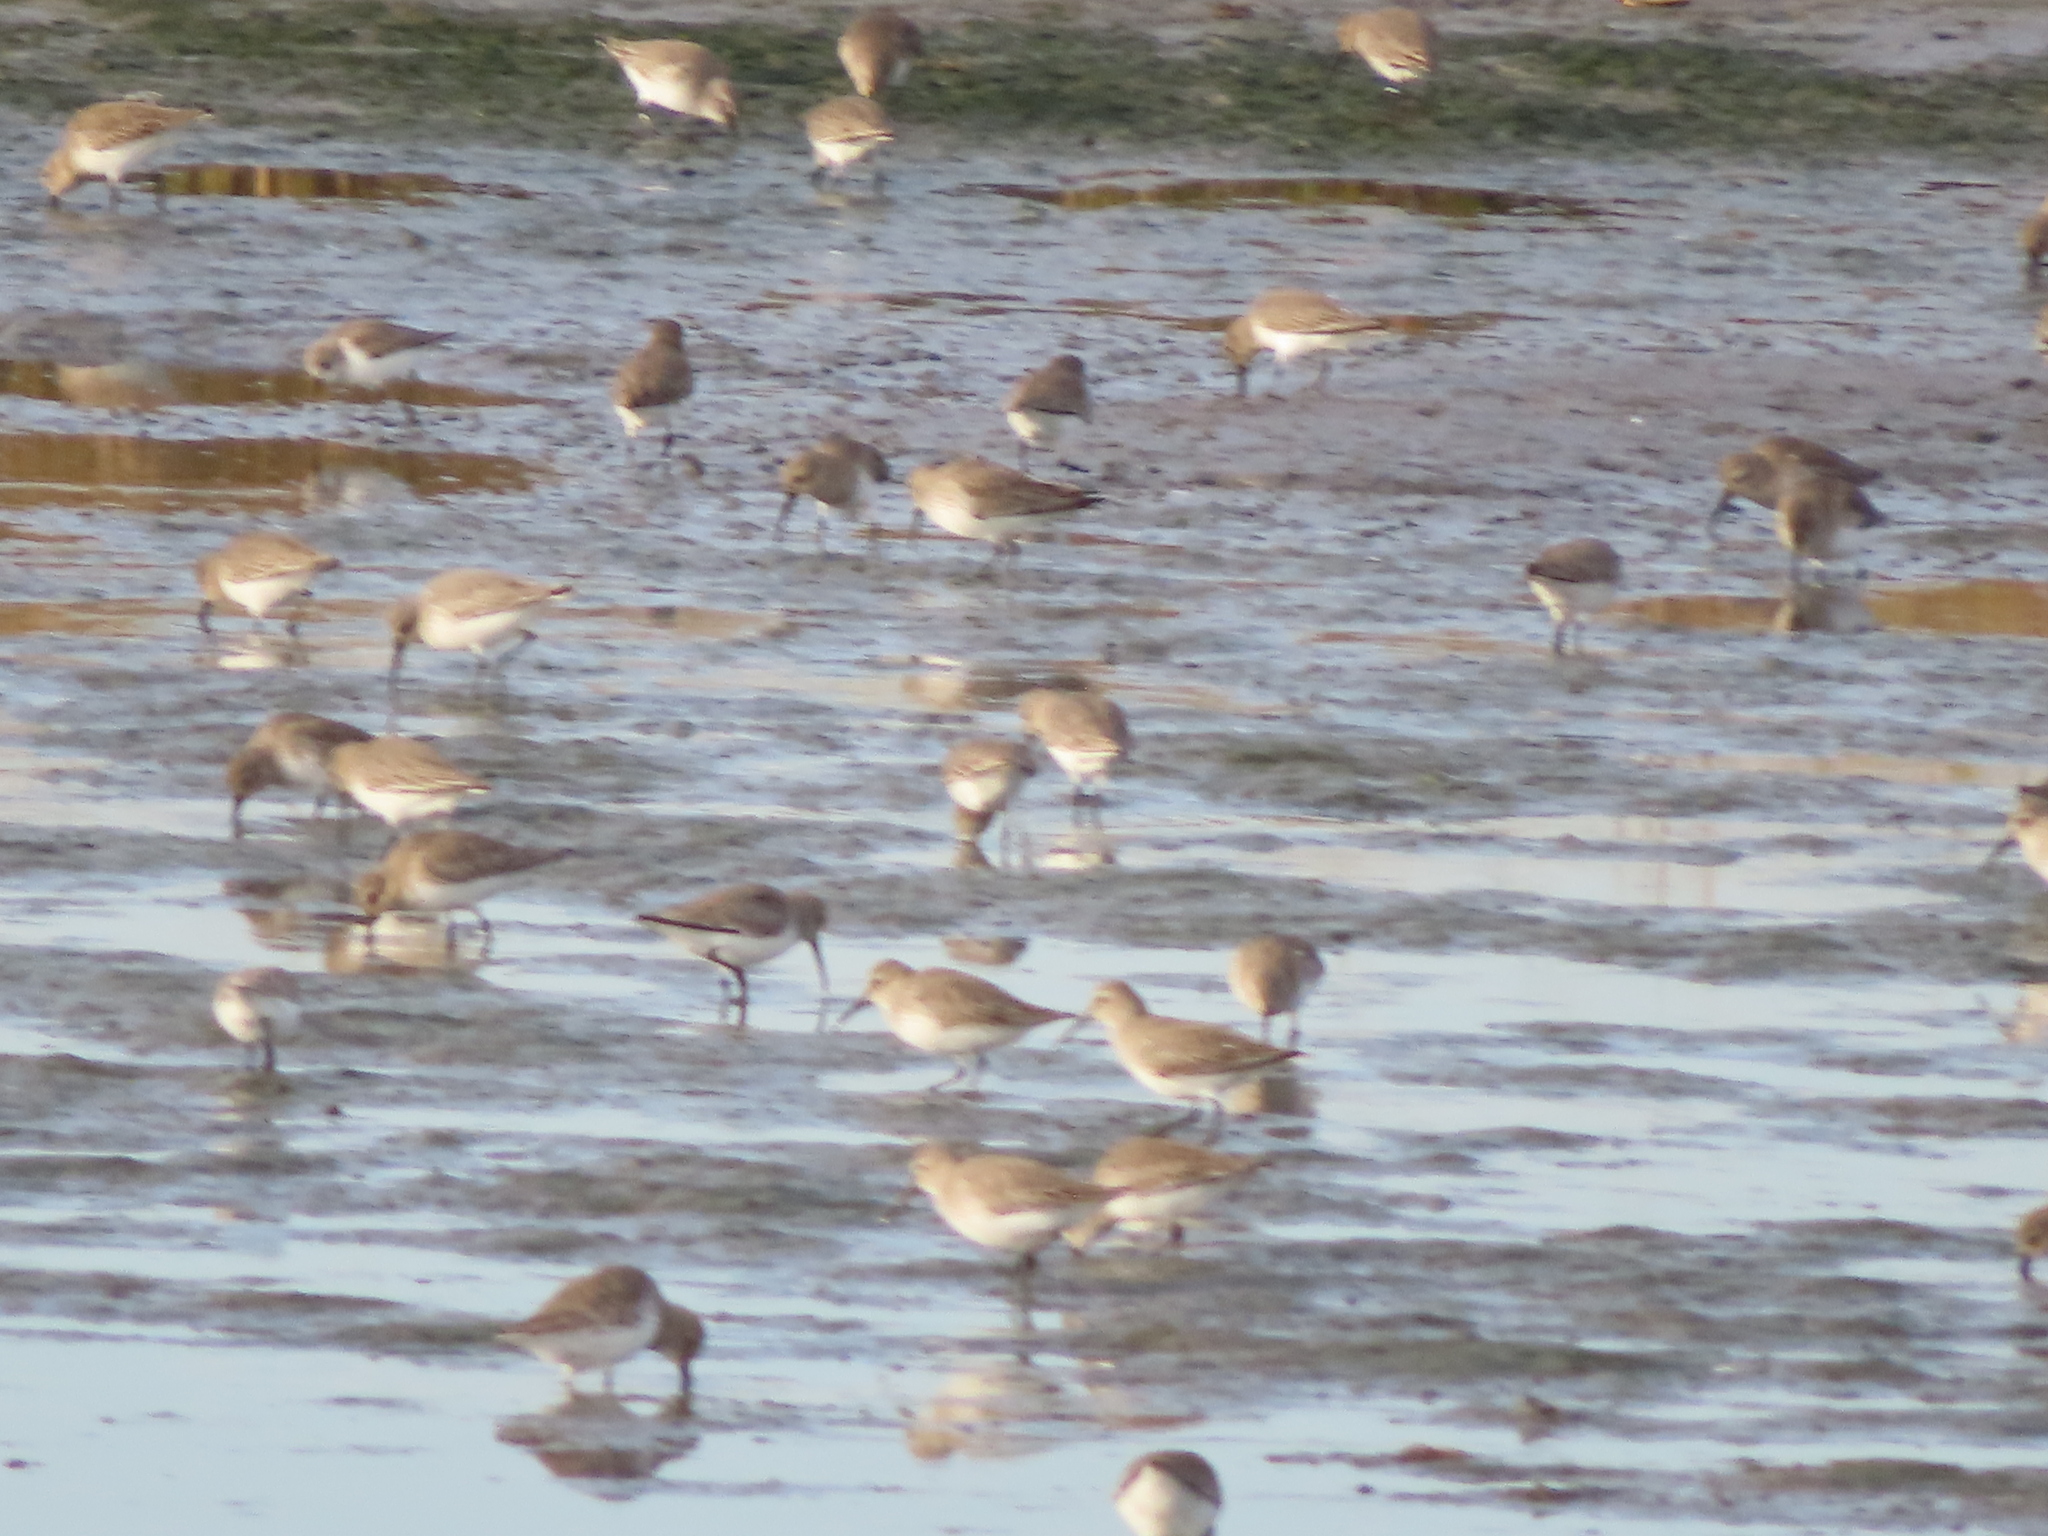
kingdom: Animalia
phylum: Chordata
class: Aves
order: Charadriiformes
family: Scolopacidae
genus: Calidris
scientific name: Calidris alpina
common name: Dunlin
